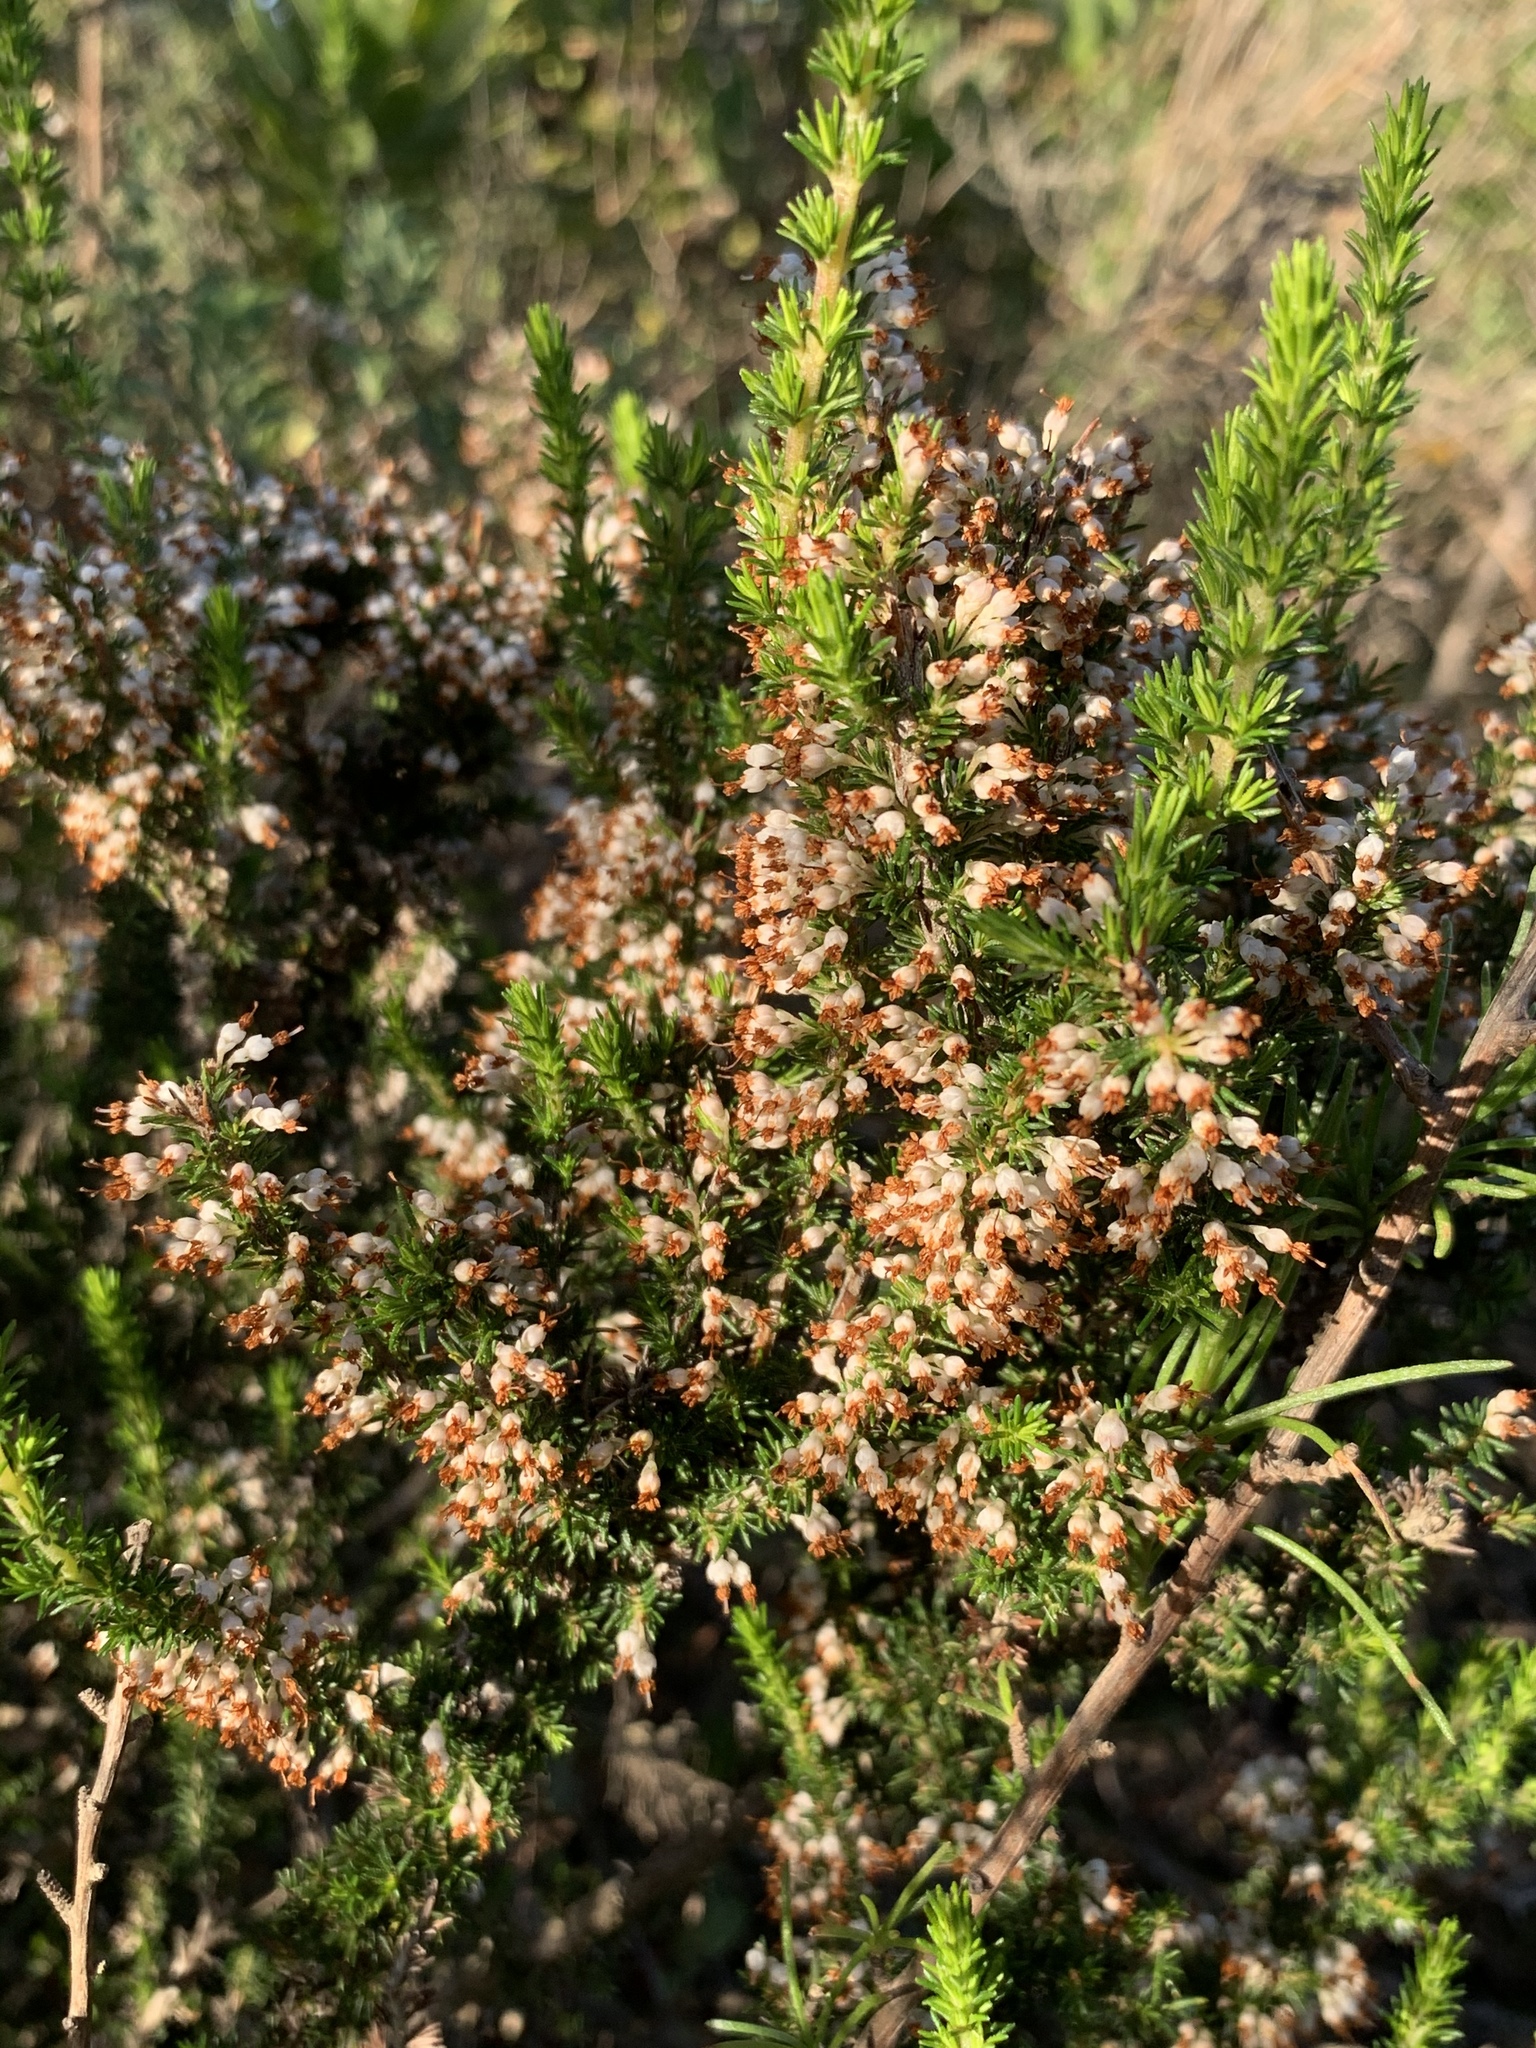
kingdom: Plantae
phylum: Tracheophyta
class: Magnoliopsida
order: Ericales
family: Ericaceae
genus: Erica
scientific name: Erica imbricata
